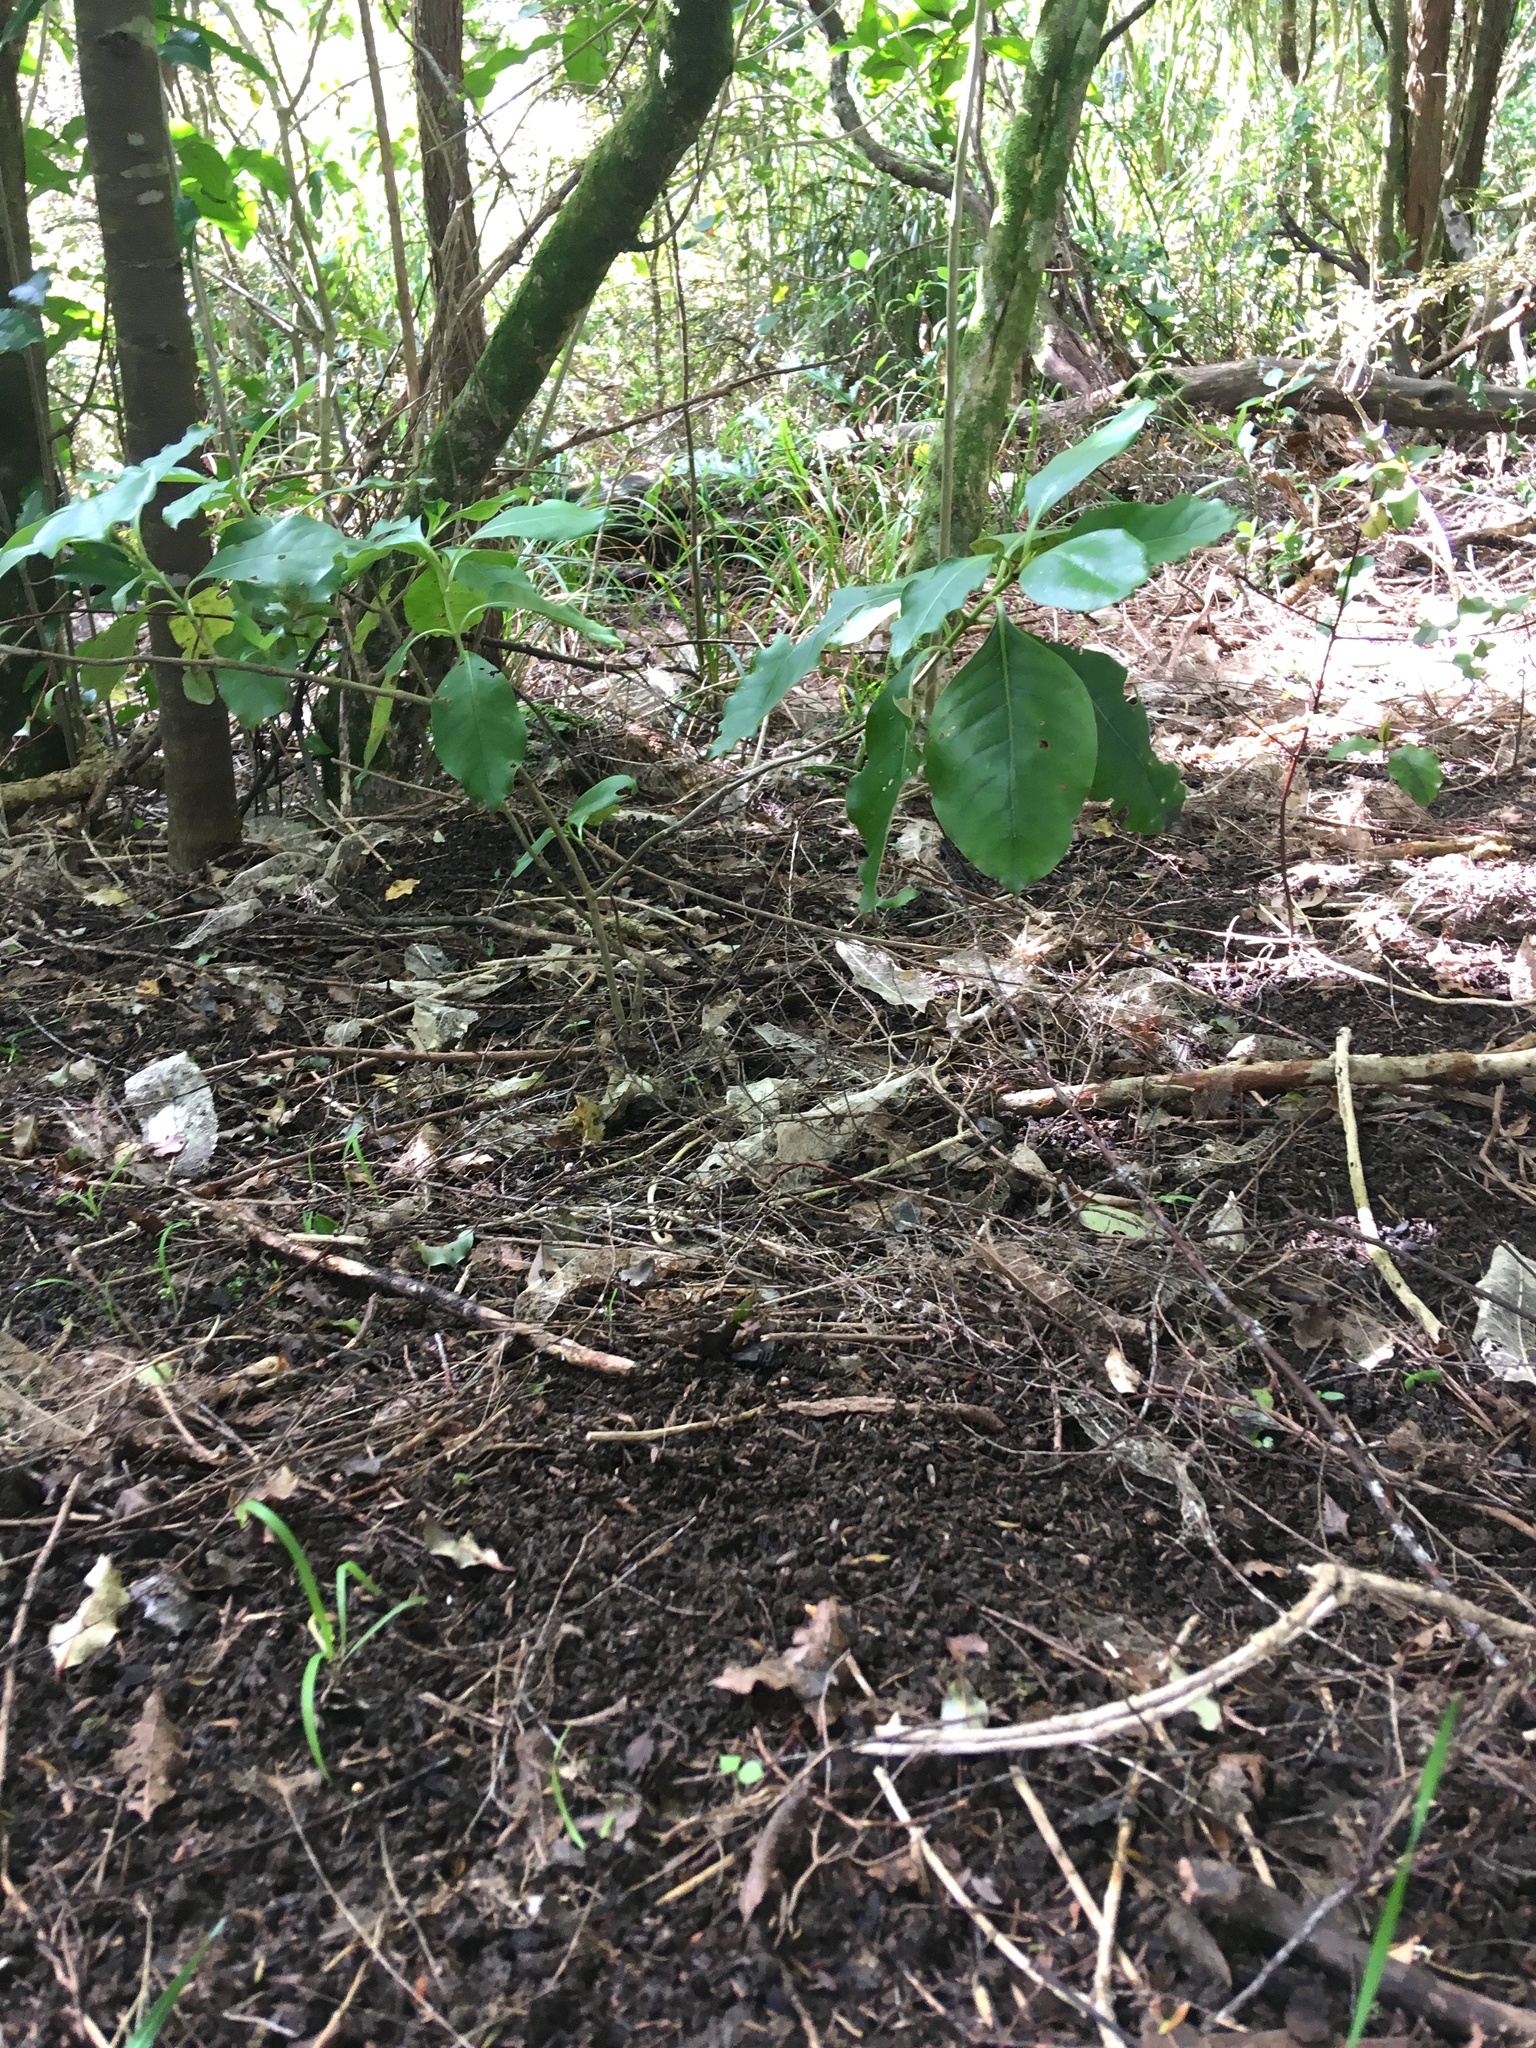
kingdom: Plantae
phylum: Tracheophyta
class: Magnoliopsida
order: Gentianales
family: Rubiaceae
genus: Coprosma
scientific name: Coprosma autumnalis
